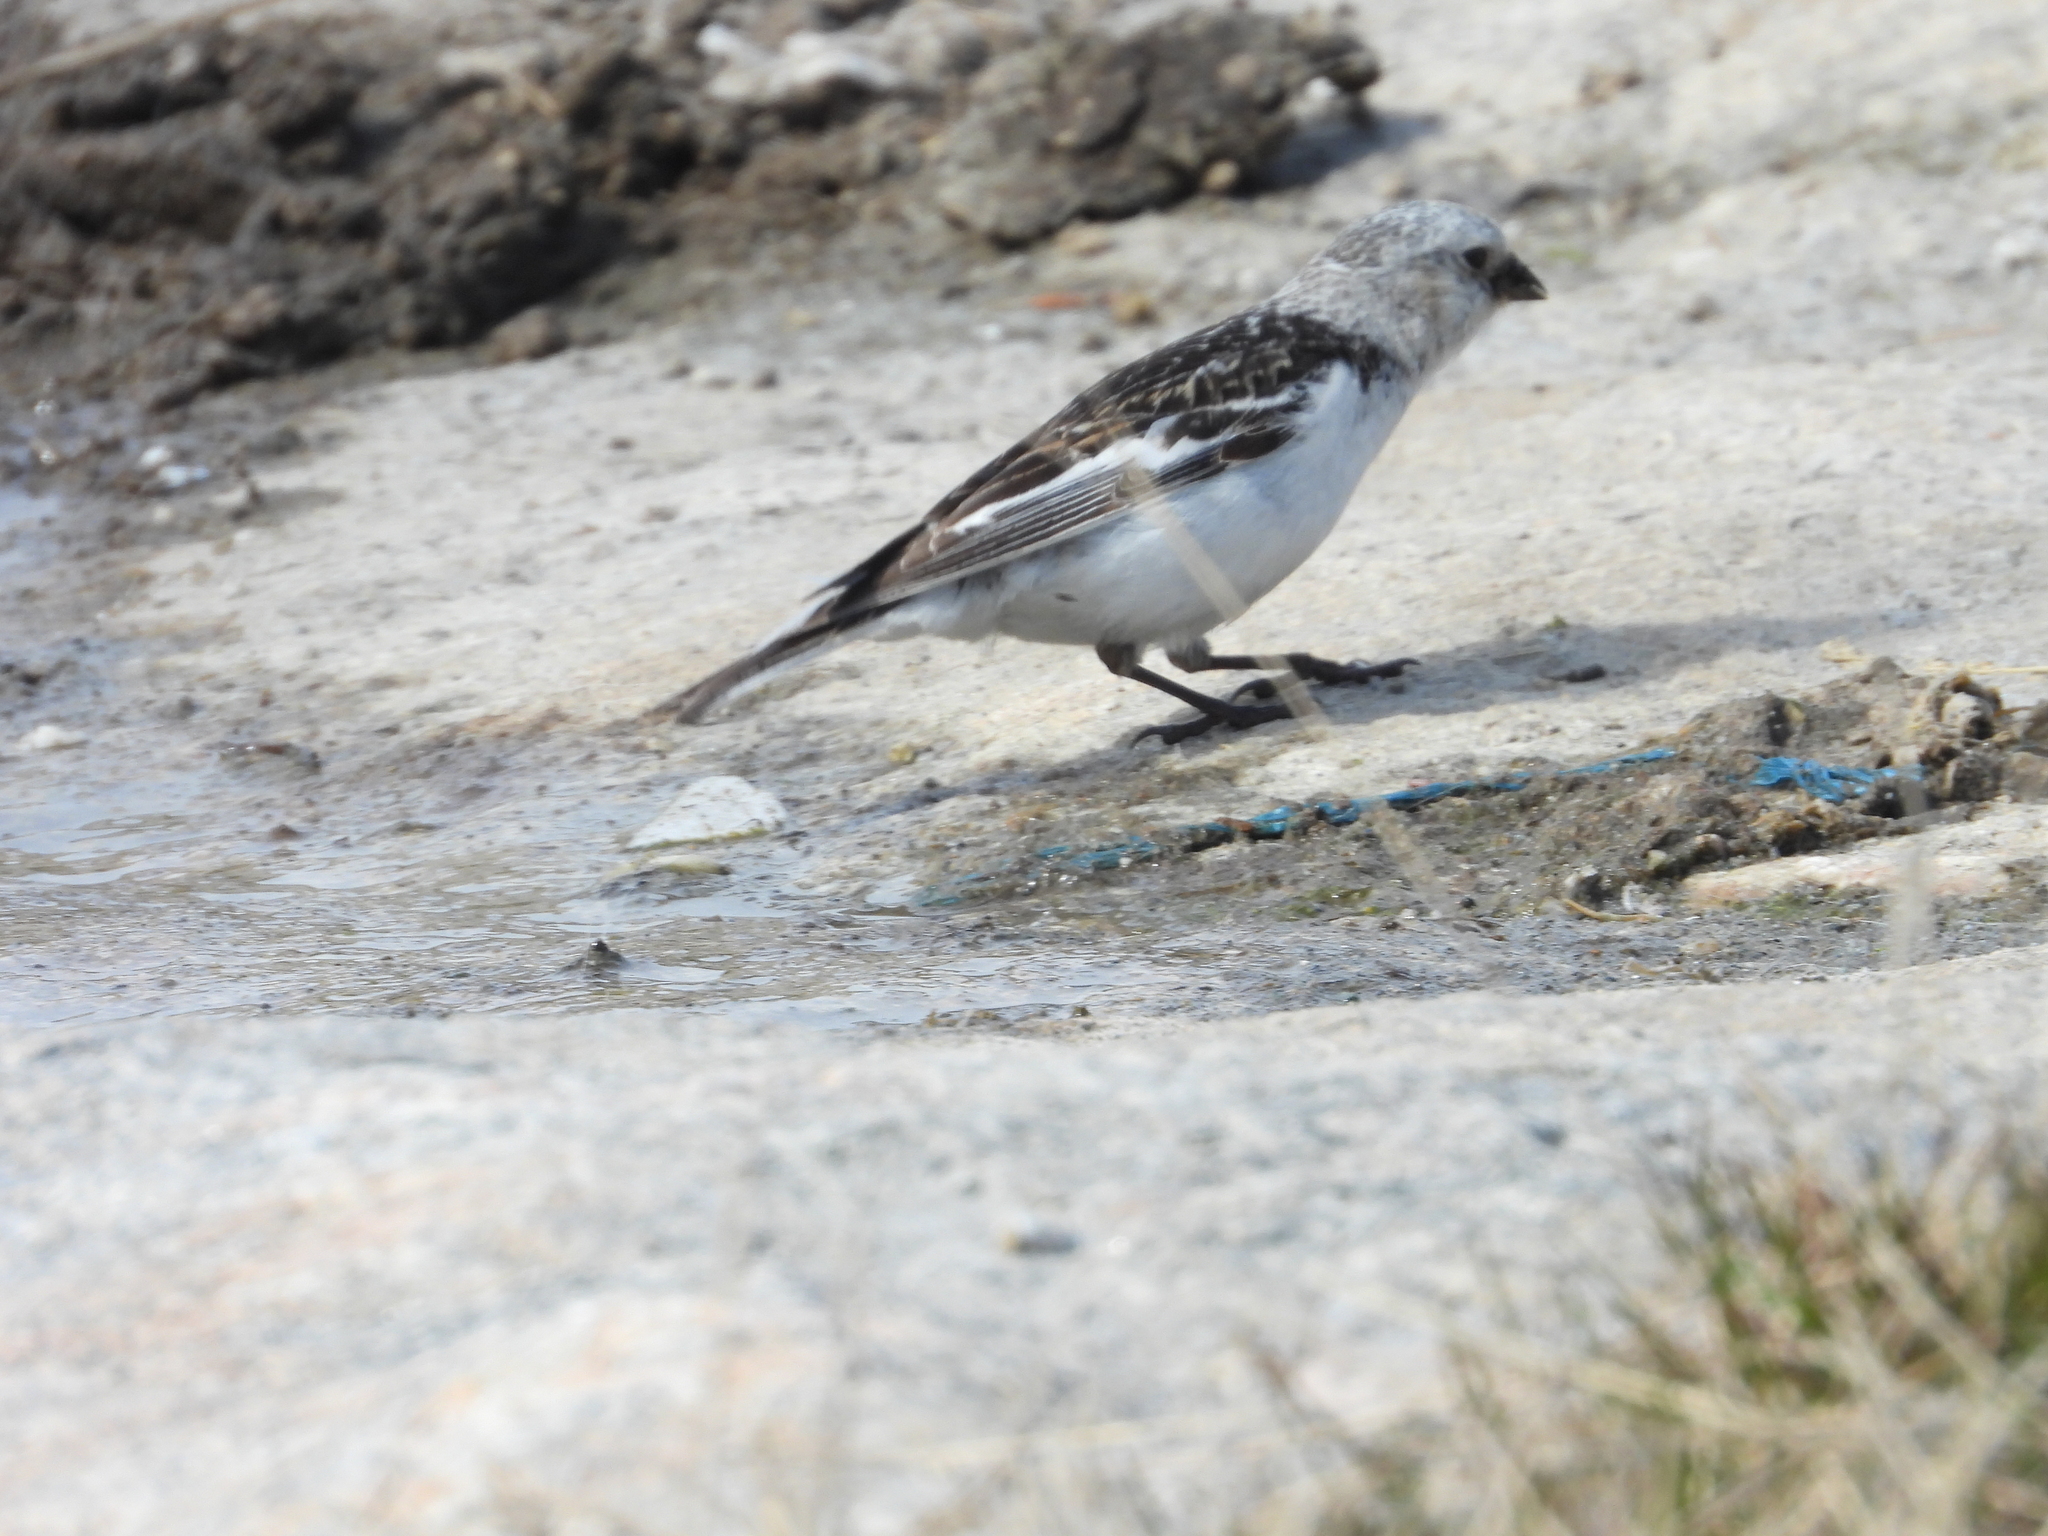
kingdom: Animalia
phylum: Chordata
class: Aves
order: Passeriformes
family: Calcariidae
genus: Plectrophenax
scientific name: Plectrophenax nivalis
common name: Snow bunting
